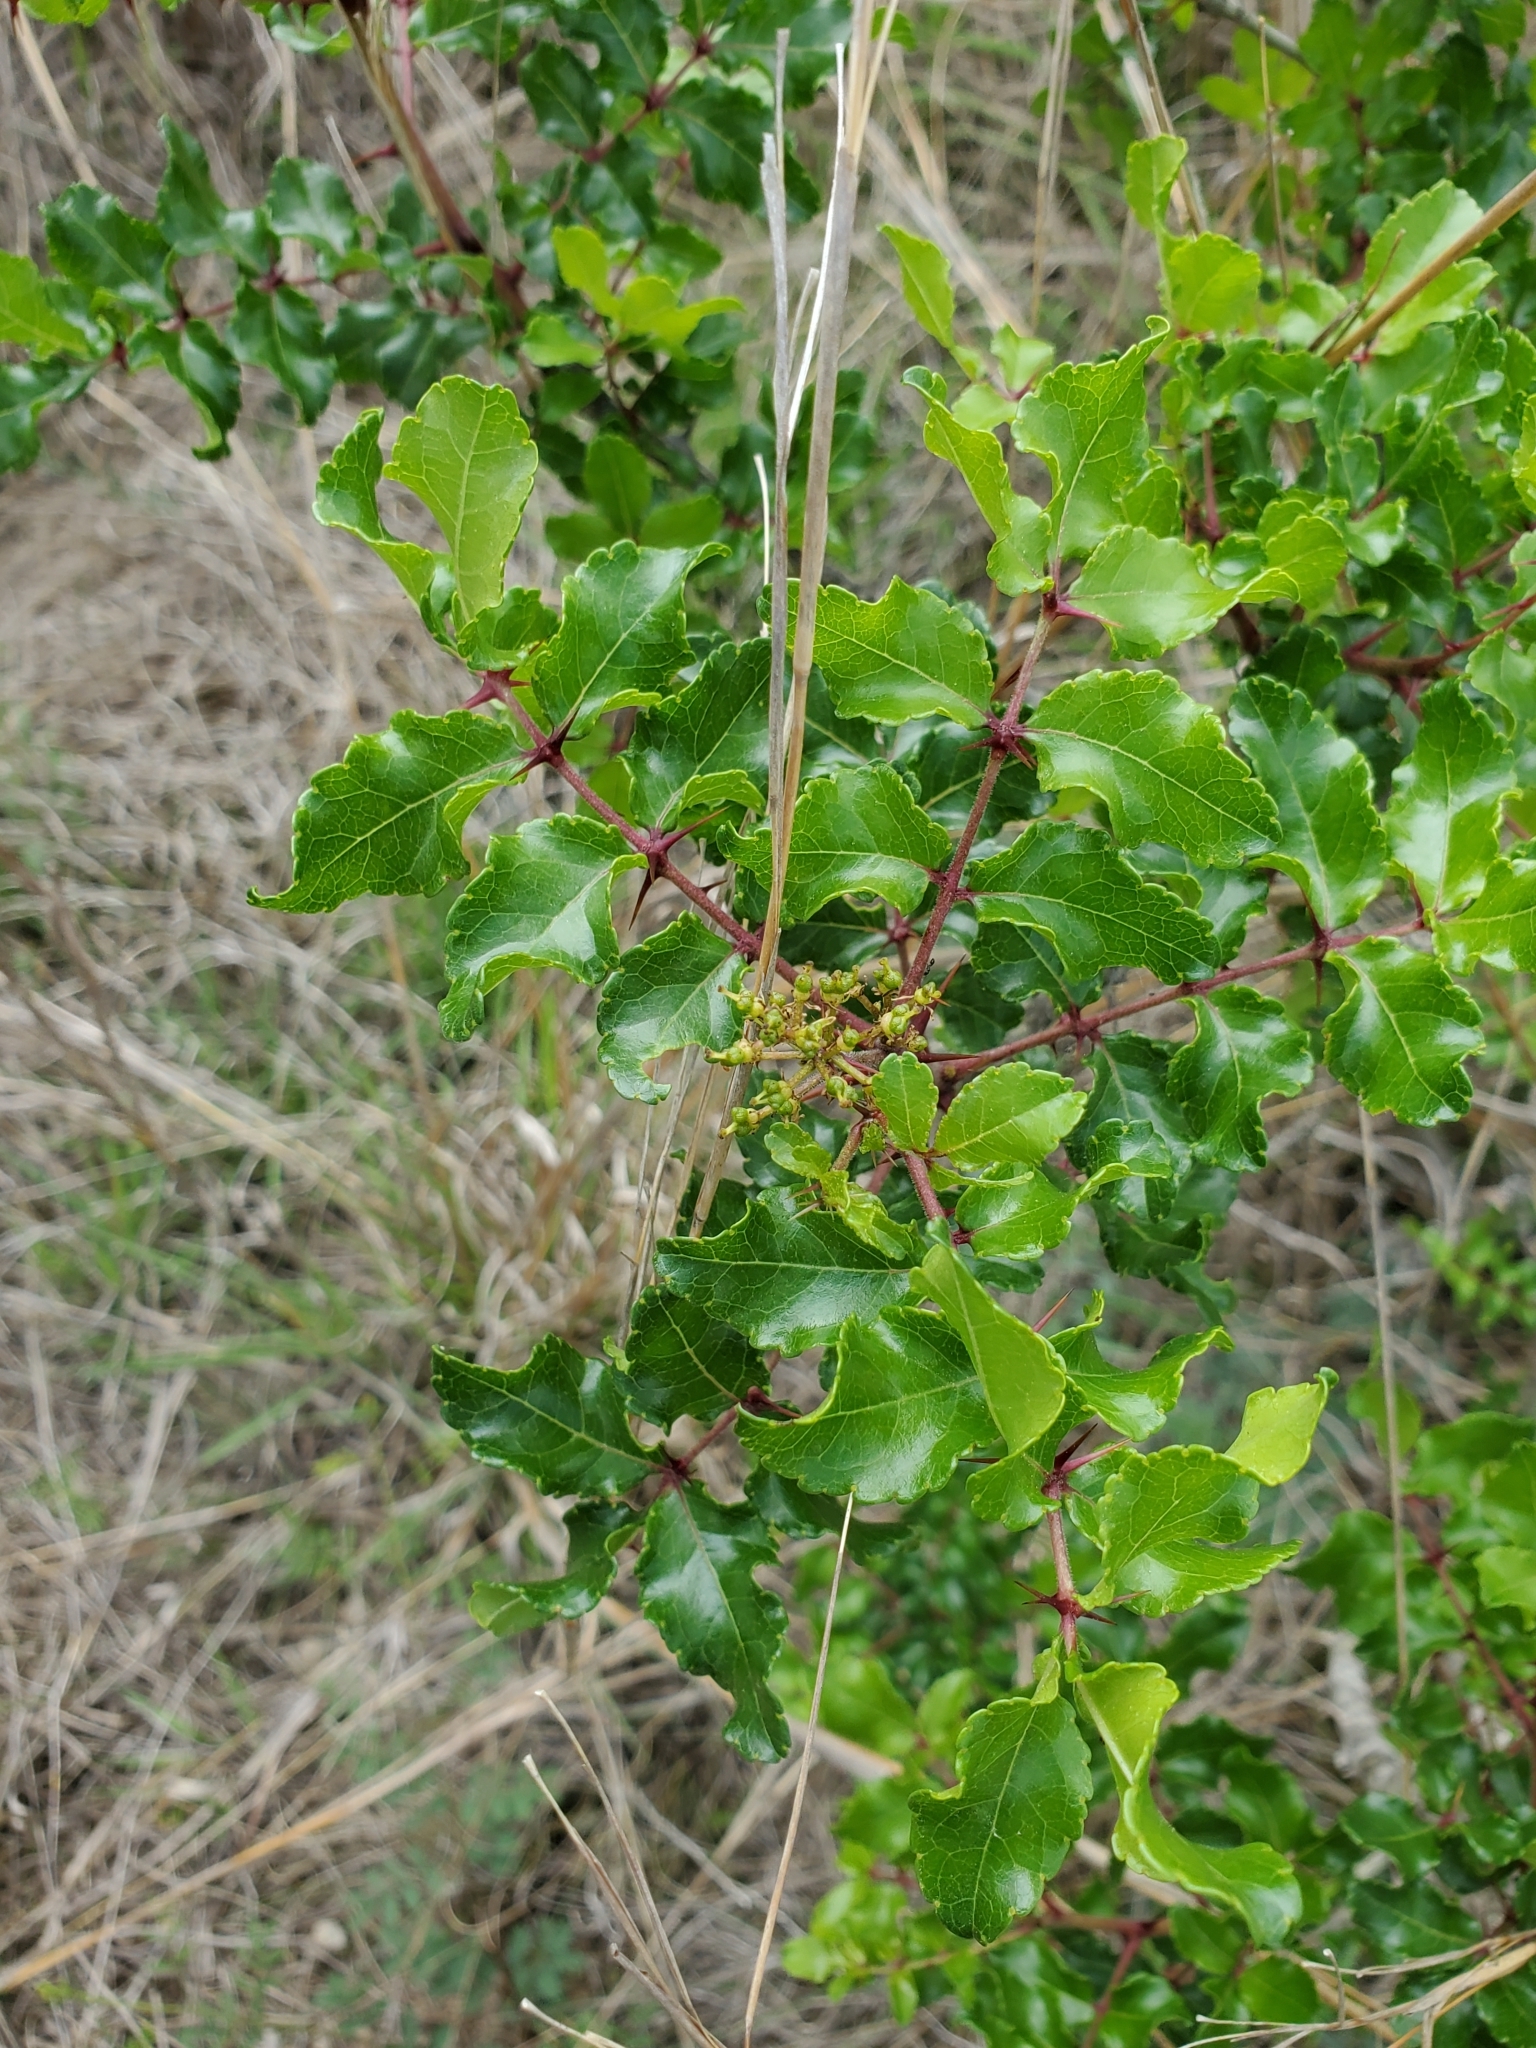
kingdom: Plantae
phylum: Tracheophyta
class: Magnoliopsida
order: Sapindales
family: Rutaceae
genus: Zanthoxylum
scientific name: Zanthoxylum clava-herculis
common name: Hercules'-club
